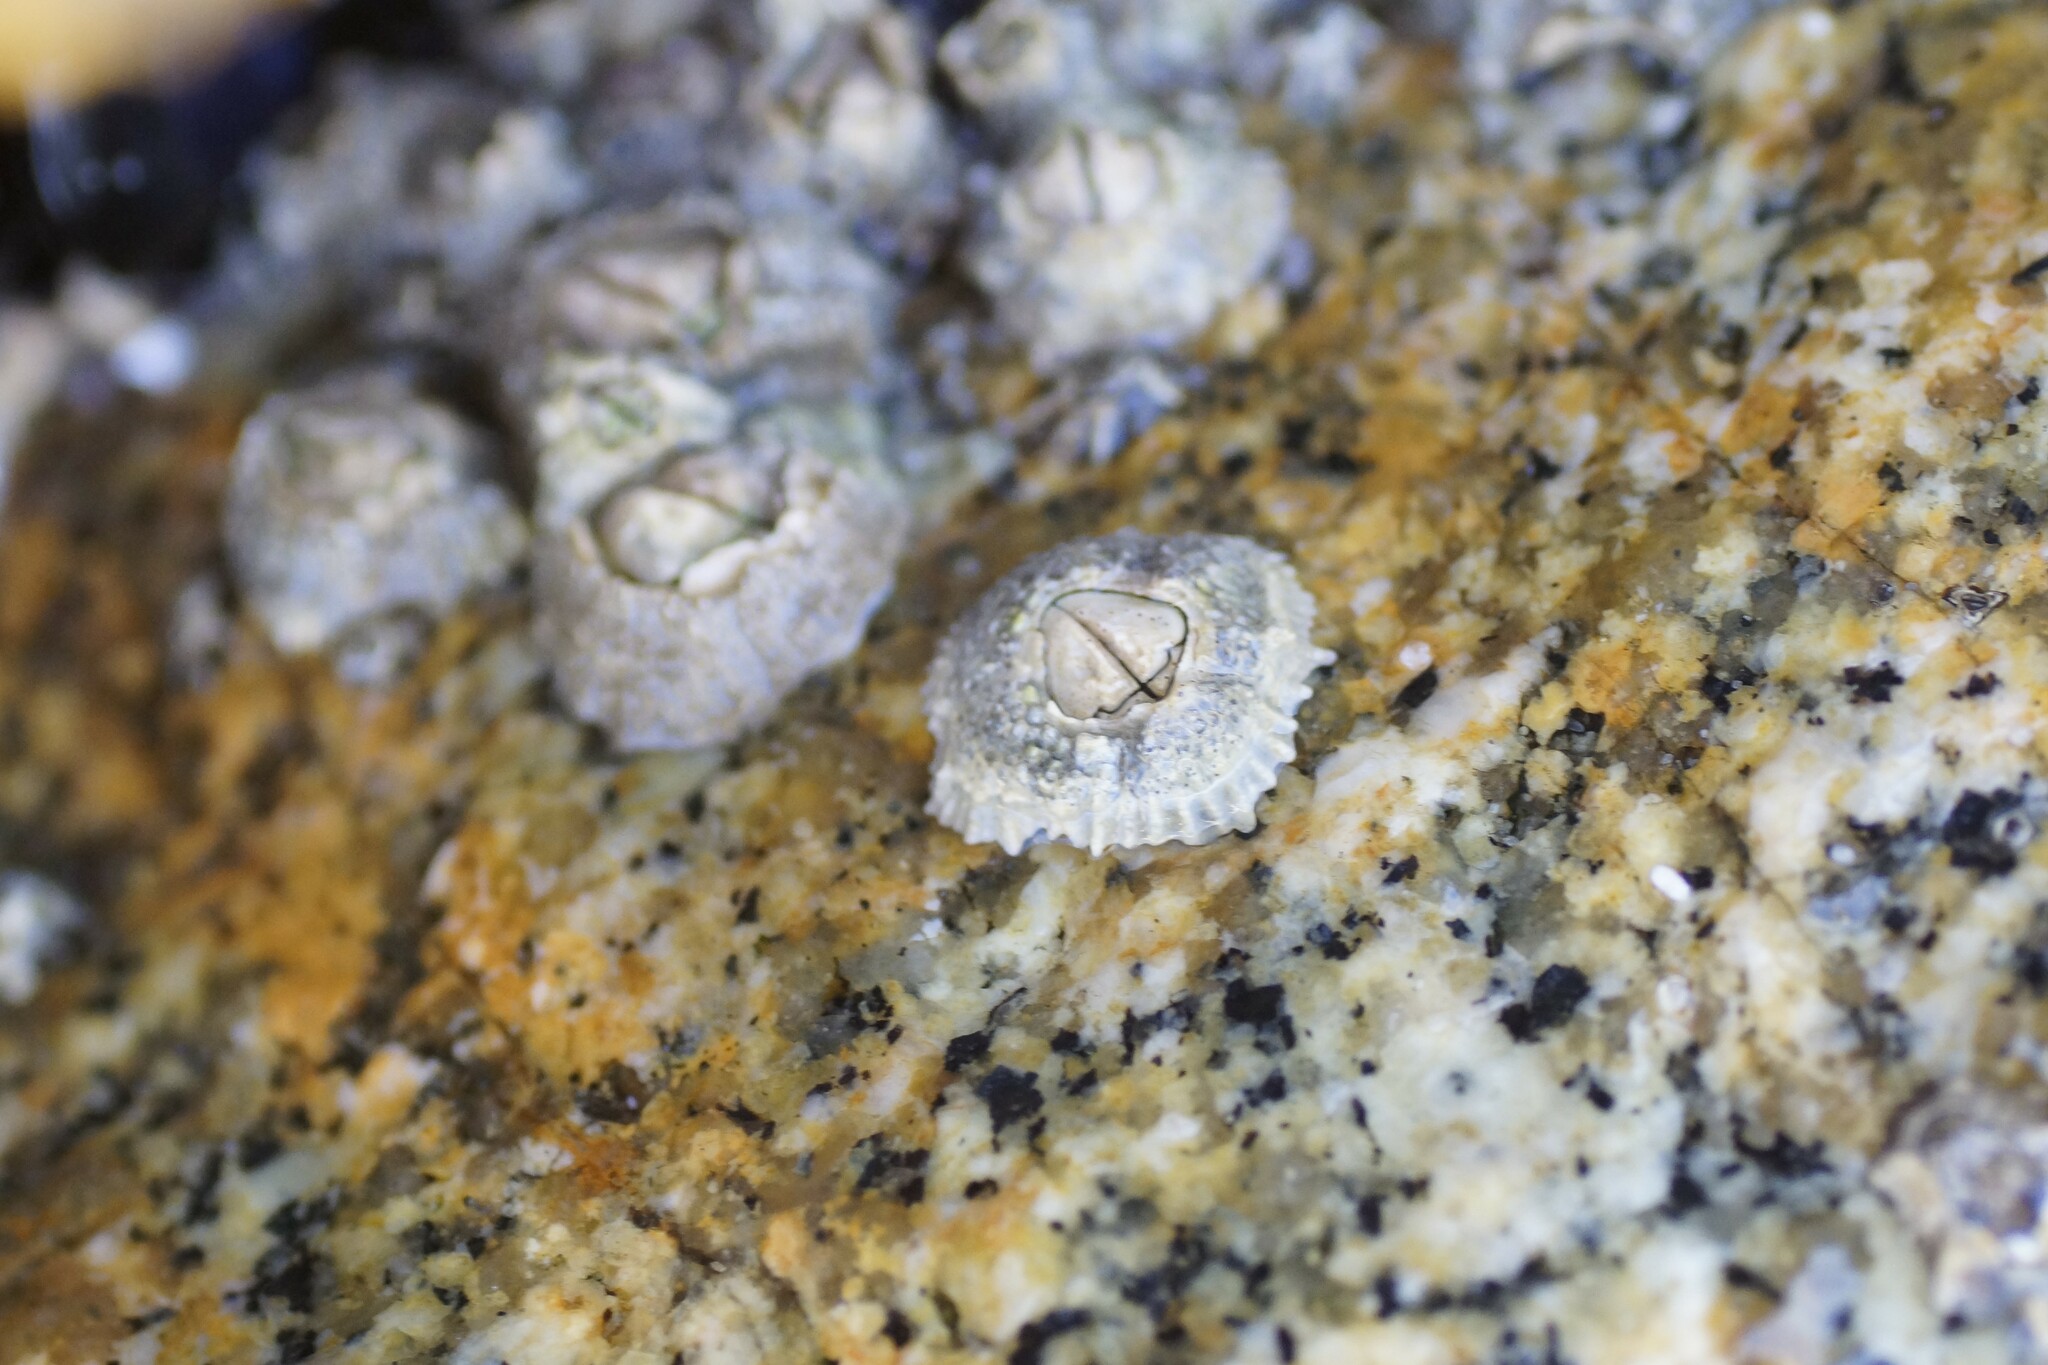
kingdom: Animalia
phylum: Arthropoda
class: Maxillopoda
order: Sessilia
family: Tetraclitidae
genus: Tetraclitella
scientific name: Tetraclitella purpurascens
